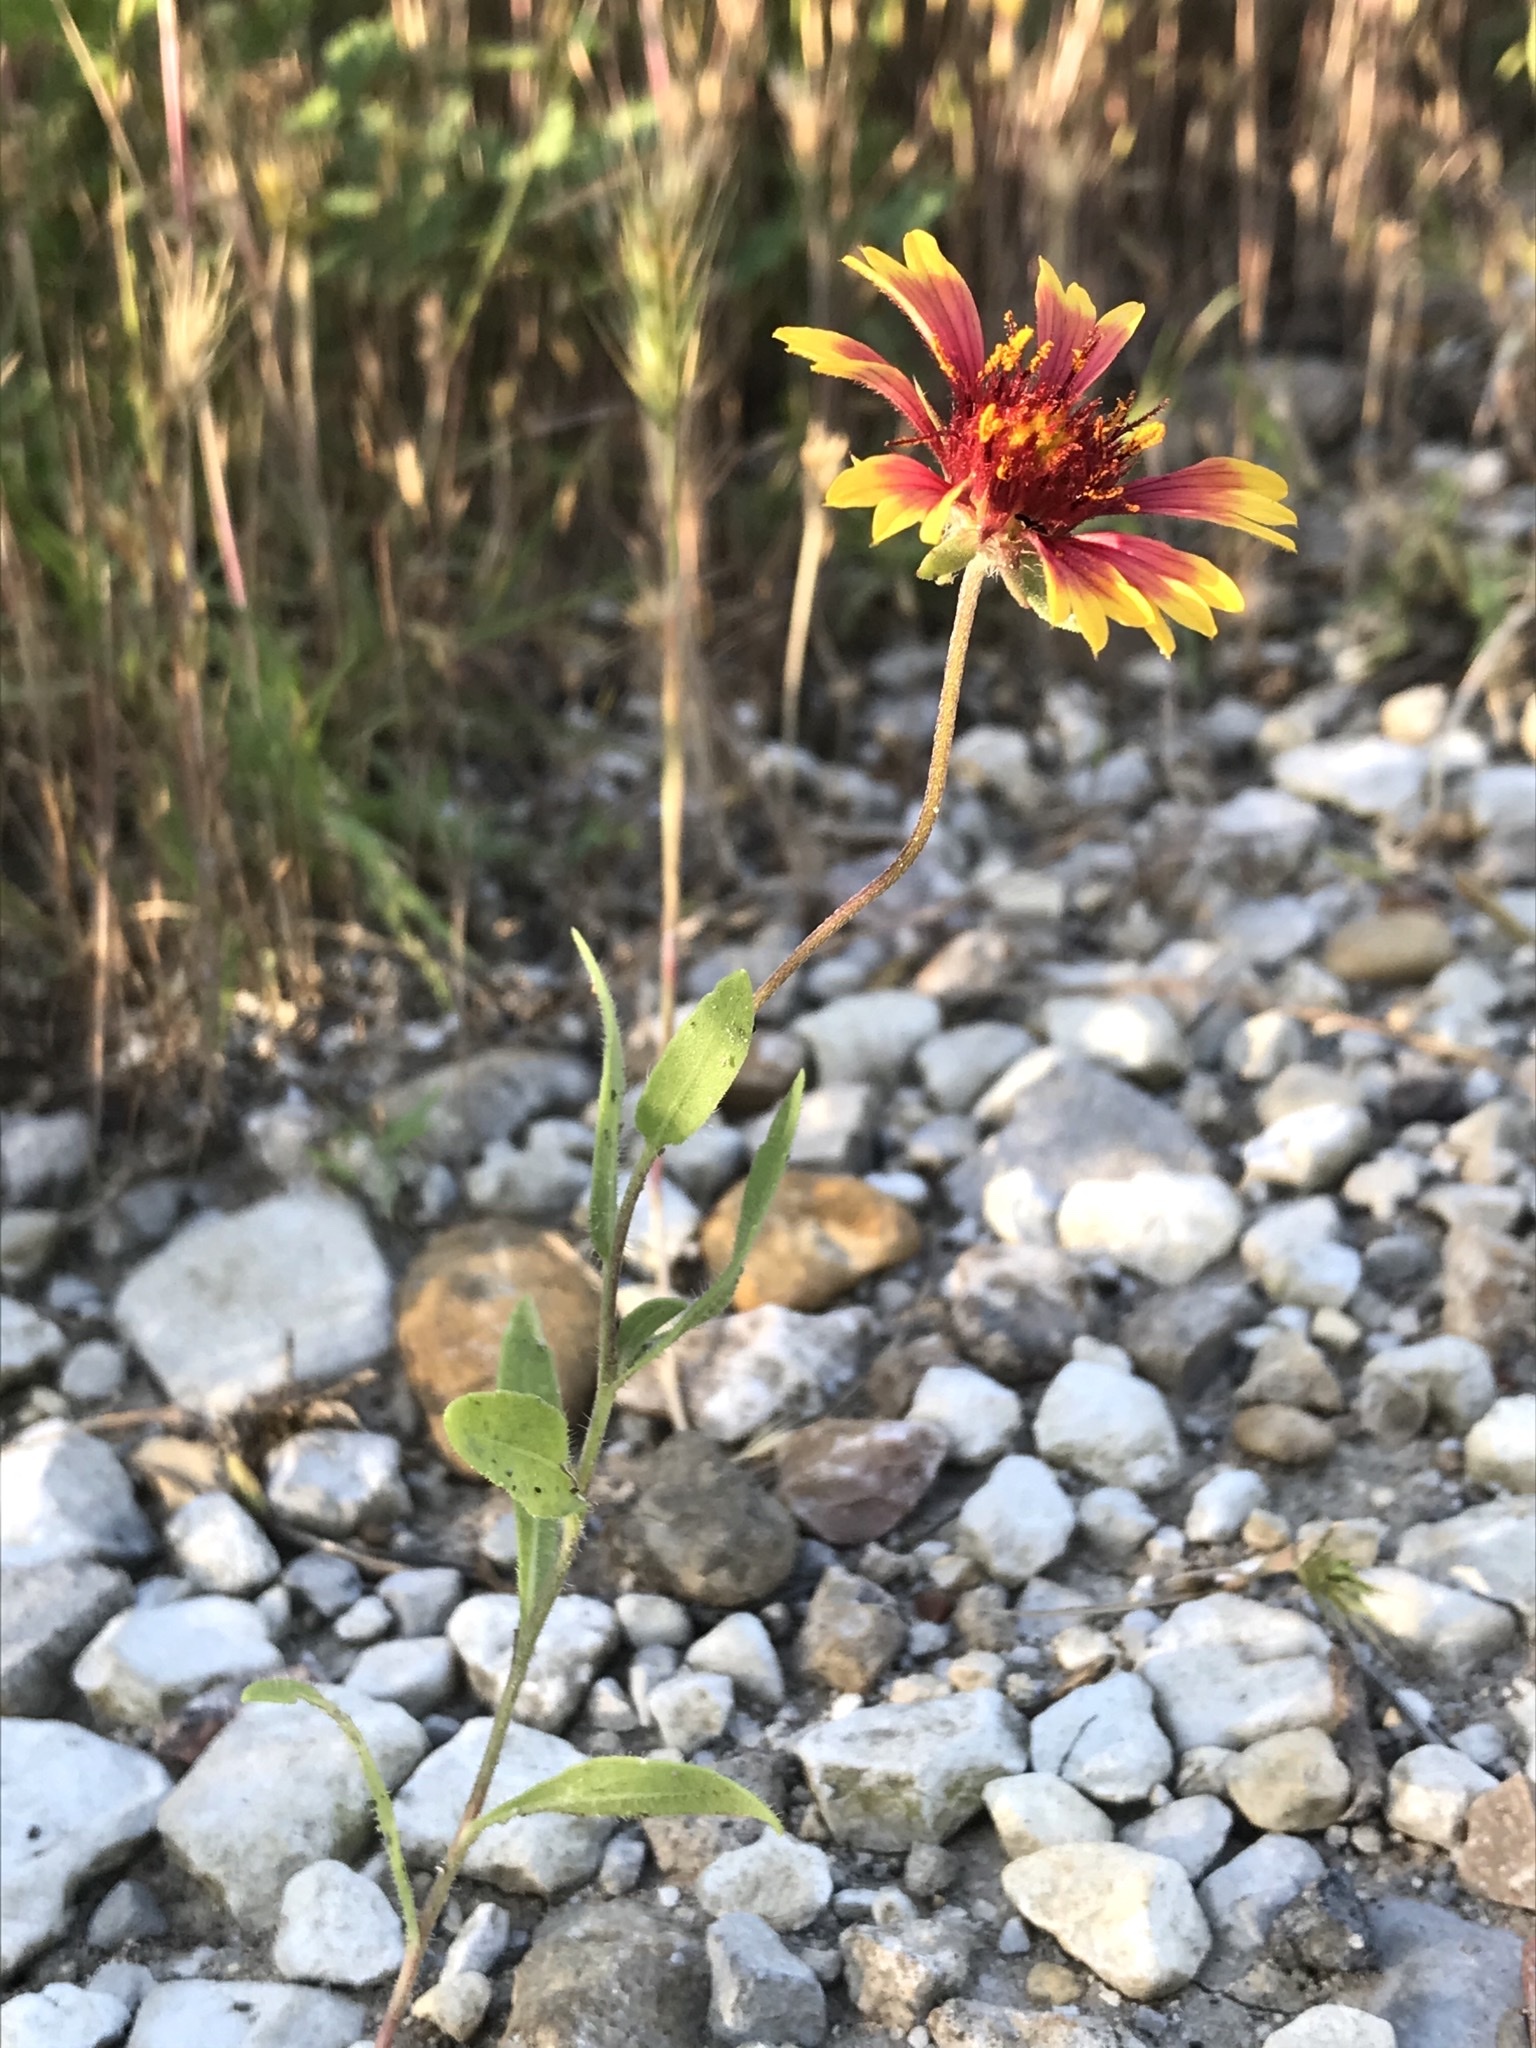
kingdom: Plantae
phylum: Tracheophyta
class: Magnoliopsida
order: Asterales
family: Asteraceae
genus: Gaillardia
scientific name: Gaillardia pulchella
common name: Firewheel
